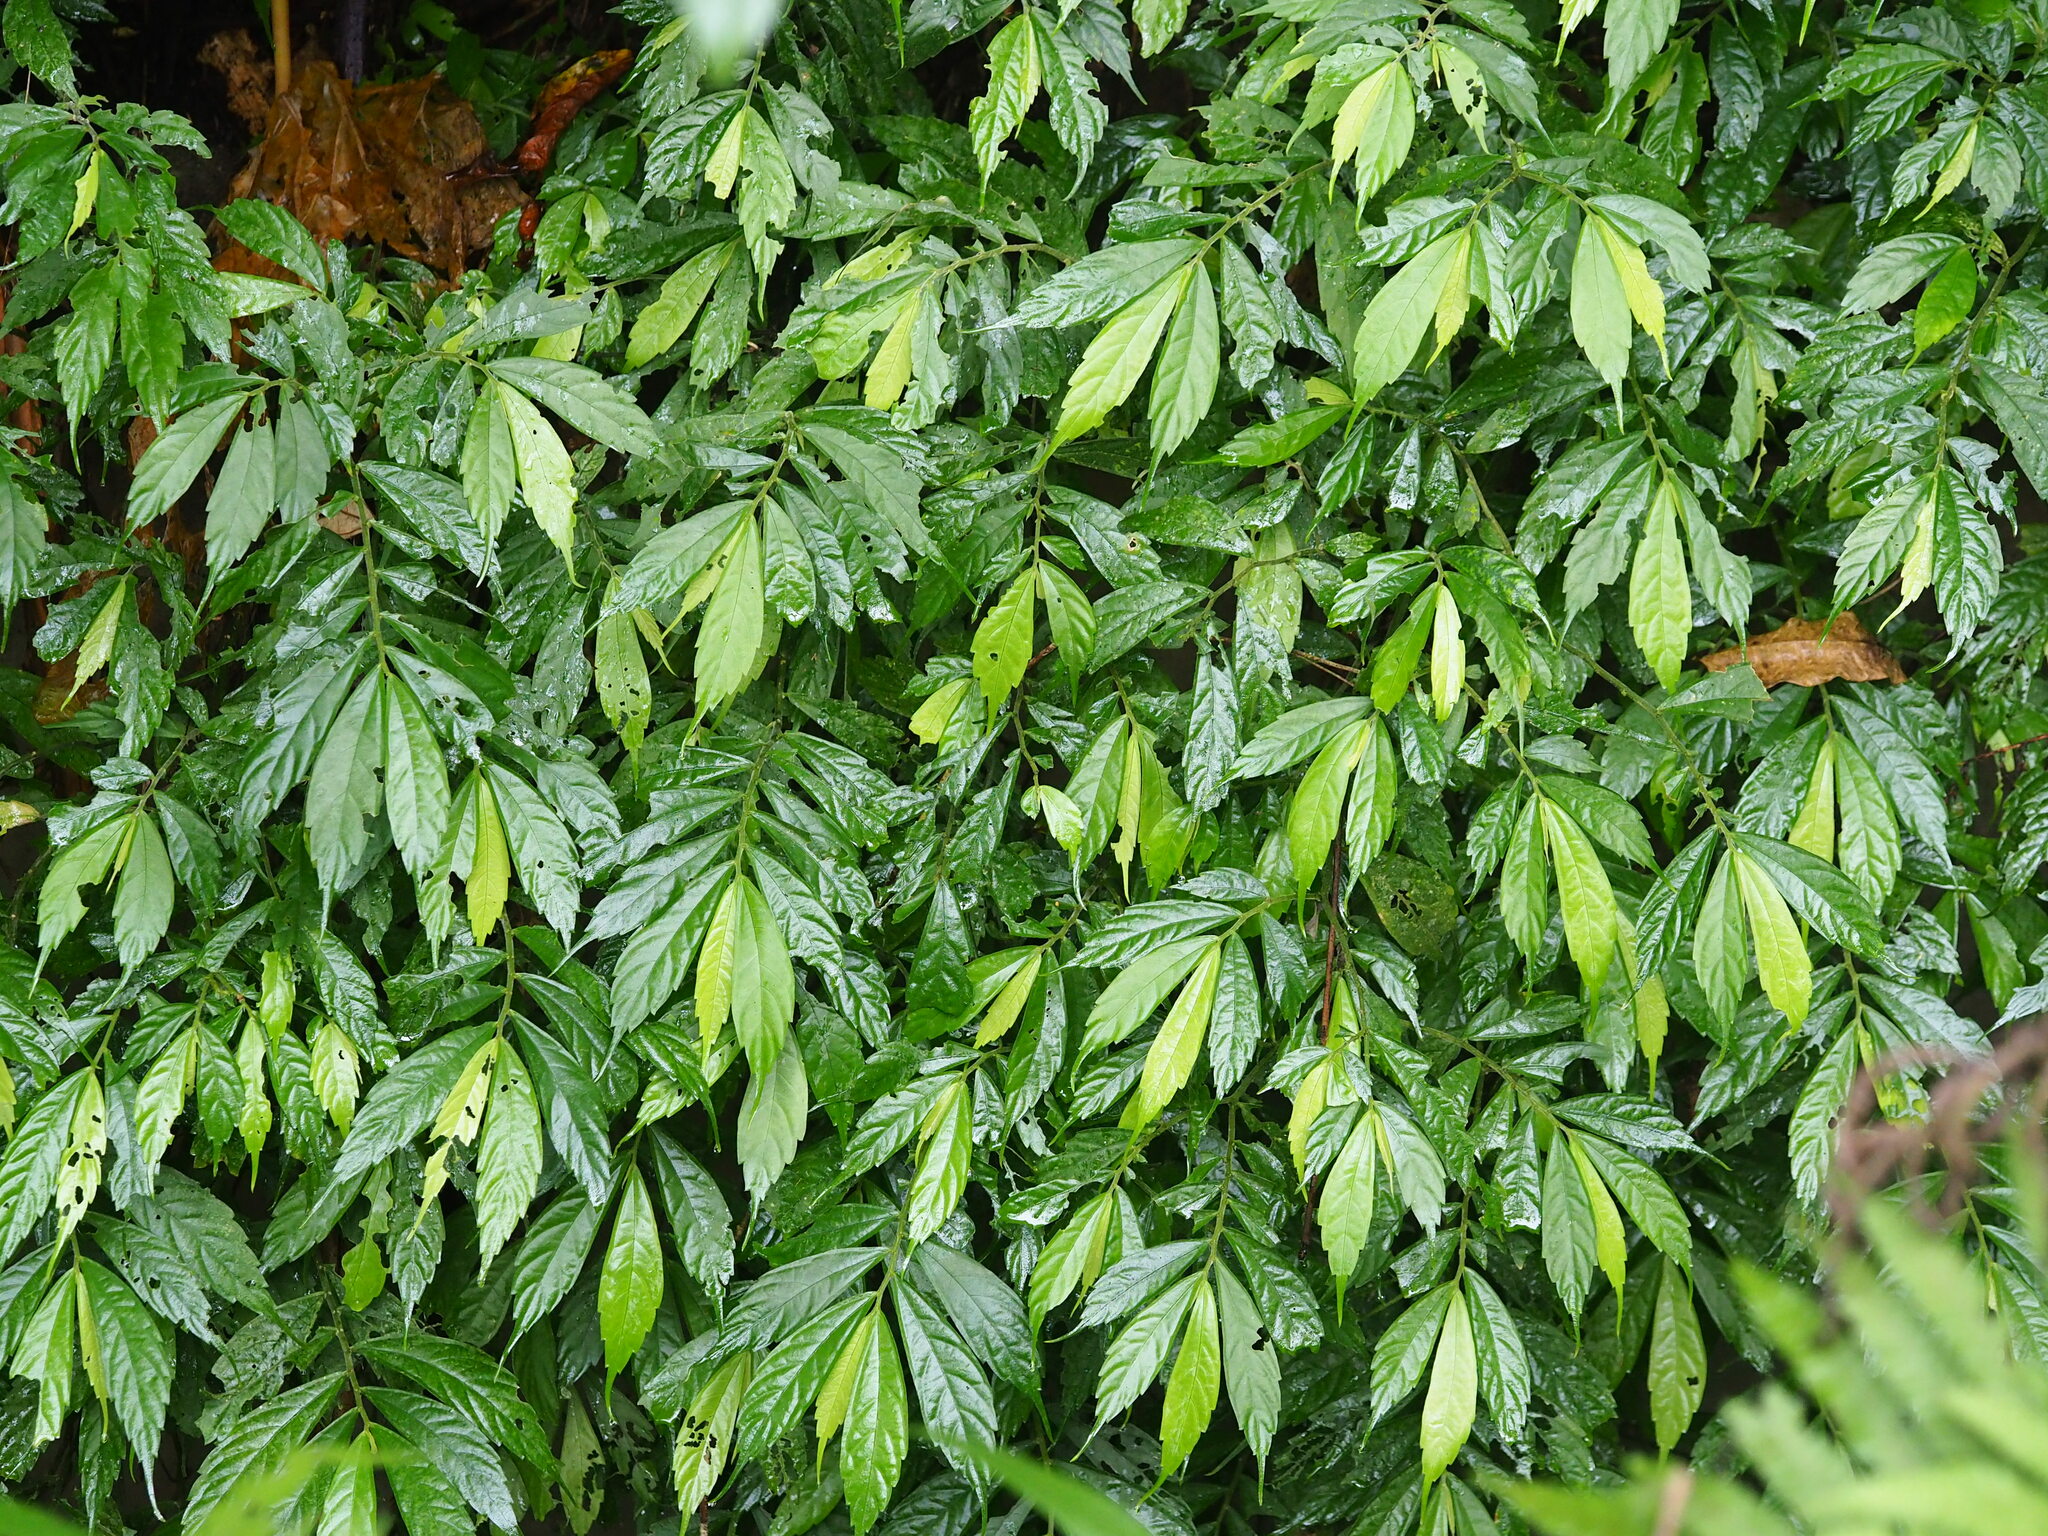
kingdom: Plantae
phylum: Tracheophyta
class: Magnoliopsida
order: Rosales
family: Urticaceae
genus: Elatostema
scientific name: Elatostema lineolatum
